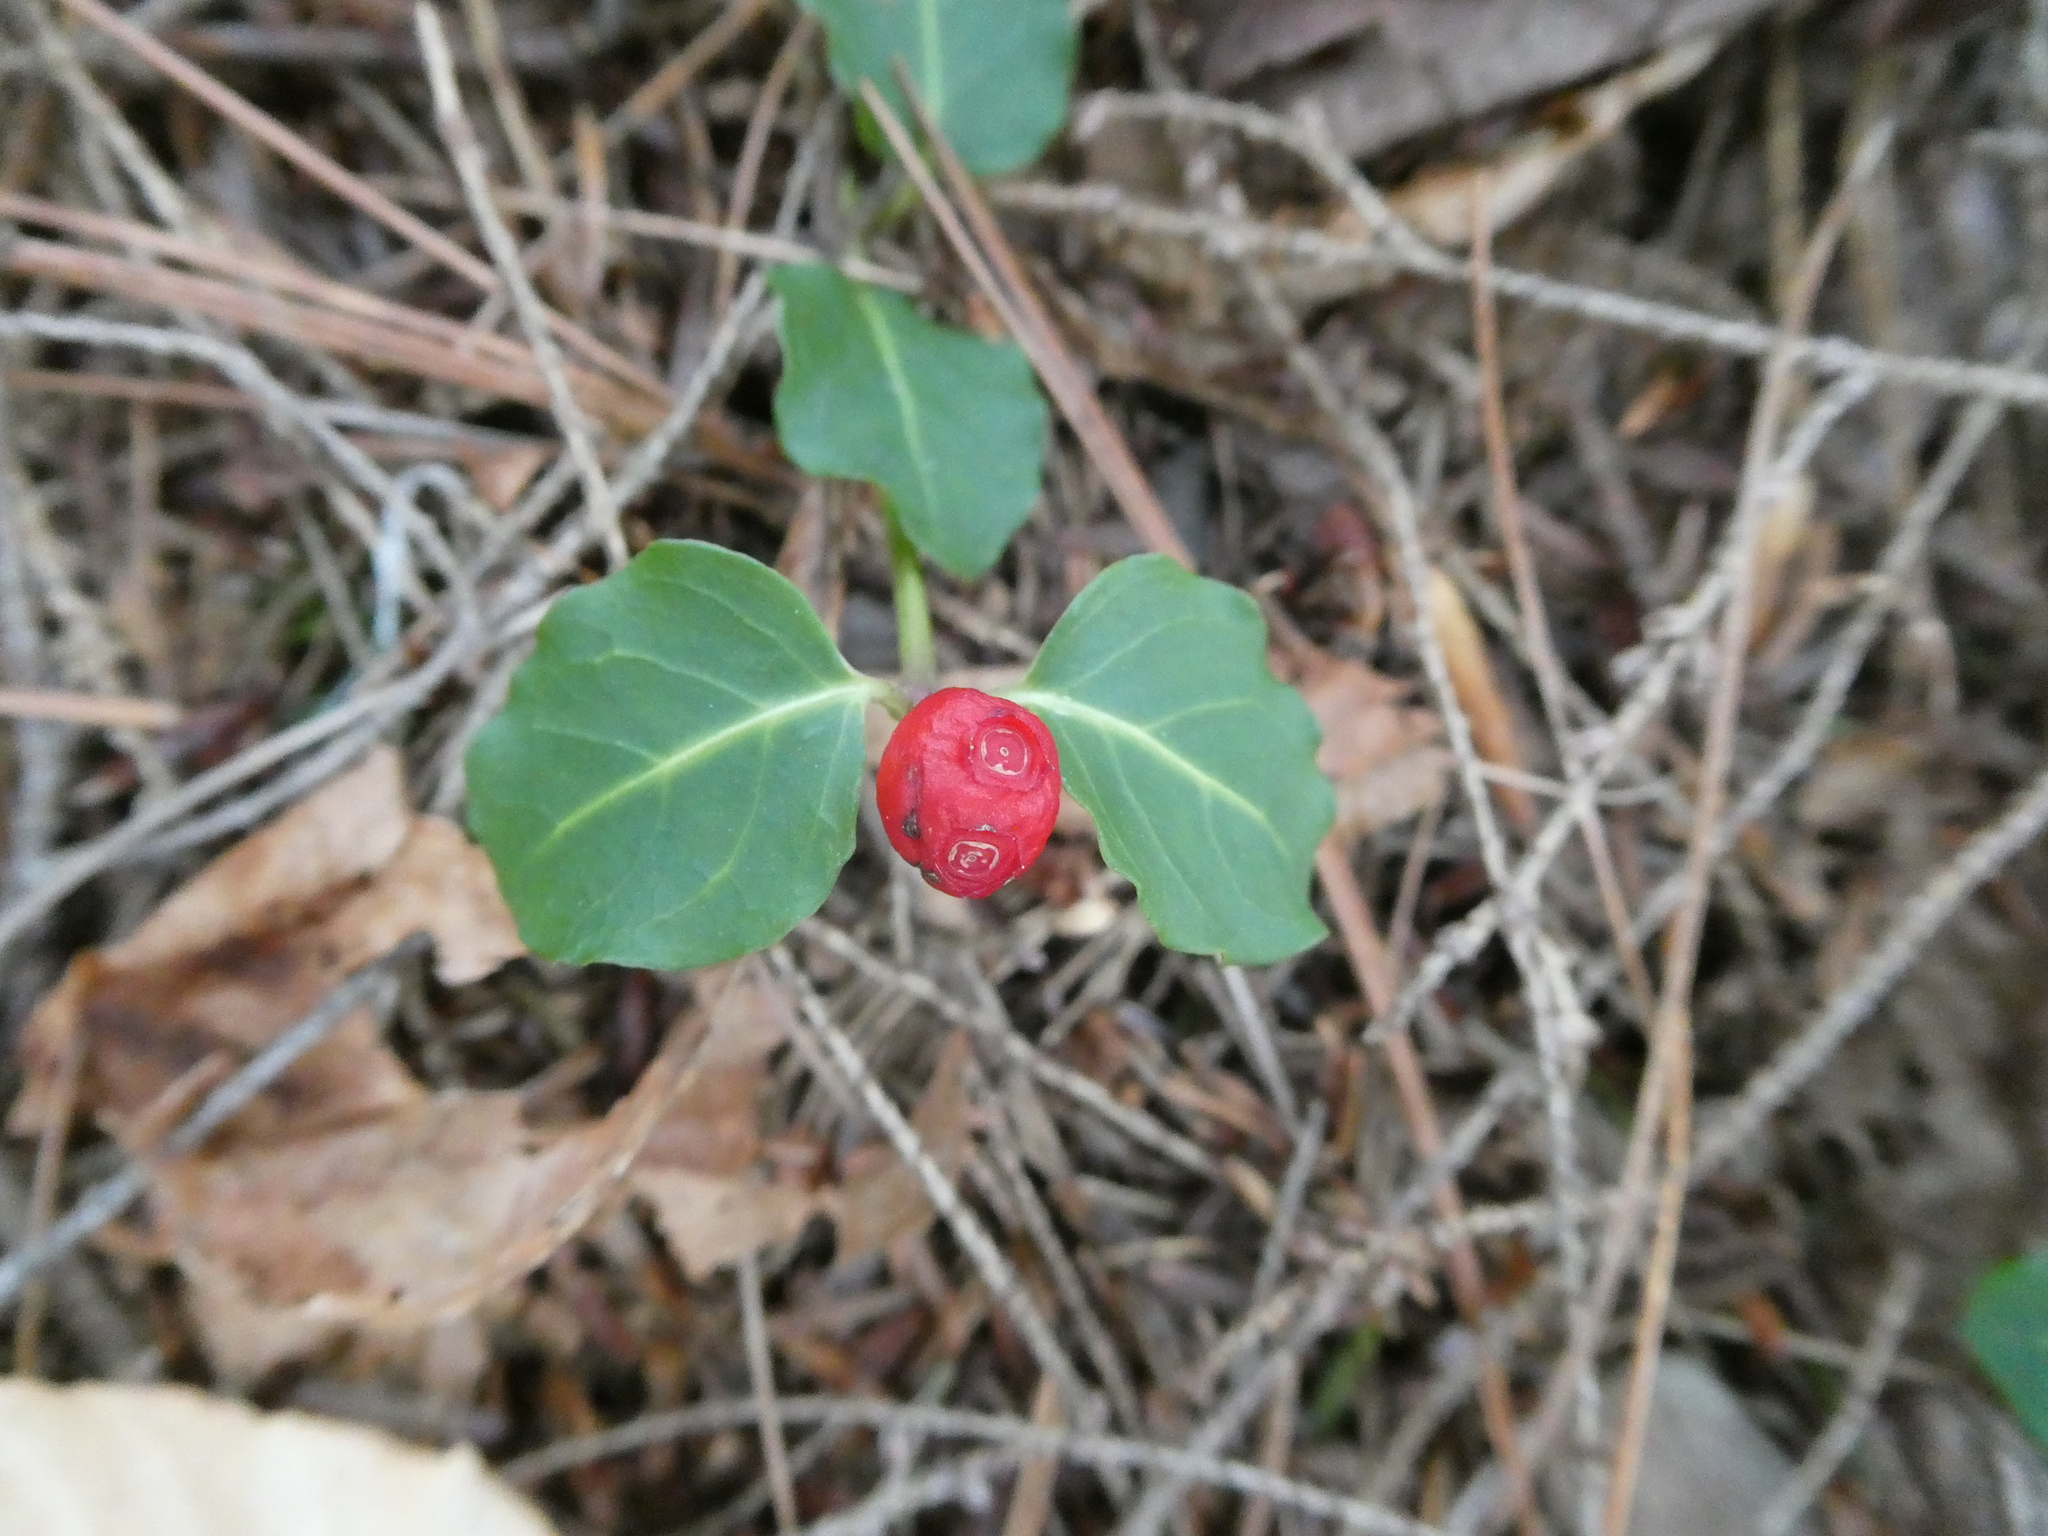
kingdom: Plantae
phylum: Tracheophyta
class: Magnoliopsida
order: Gentianales
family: Rubiaceae
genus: Mitchella
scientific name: Mitchella repens
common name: Partridge-berry
